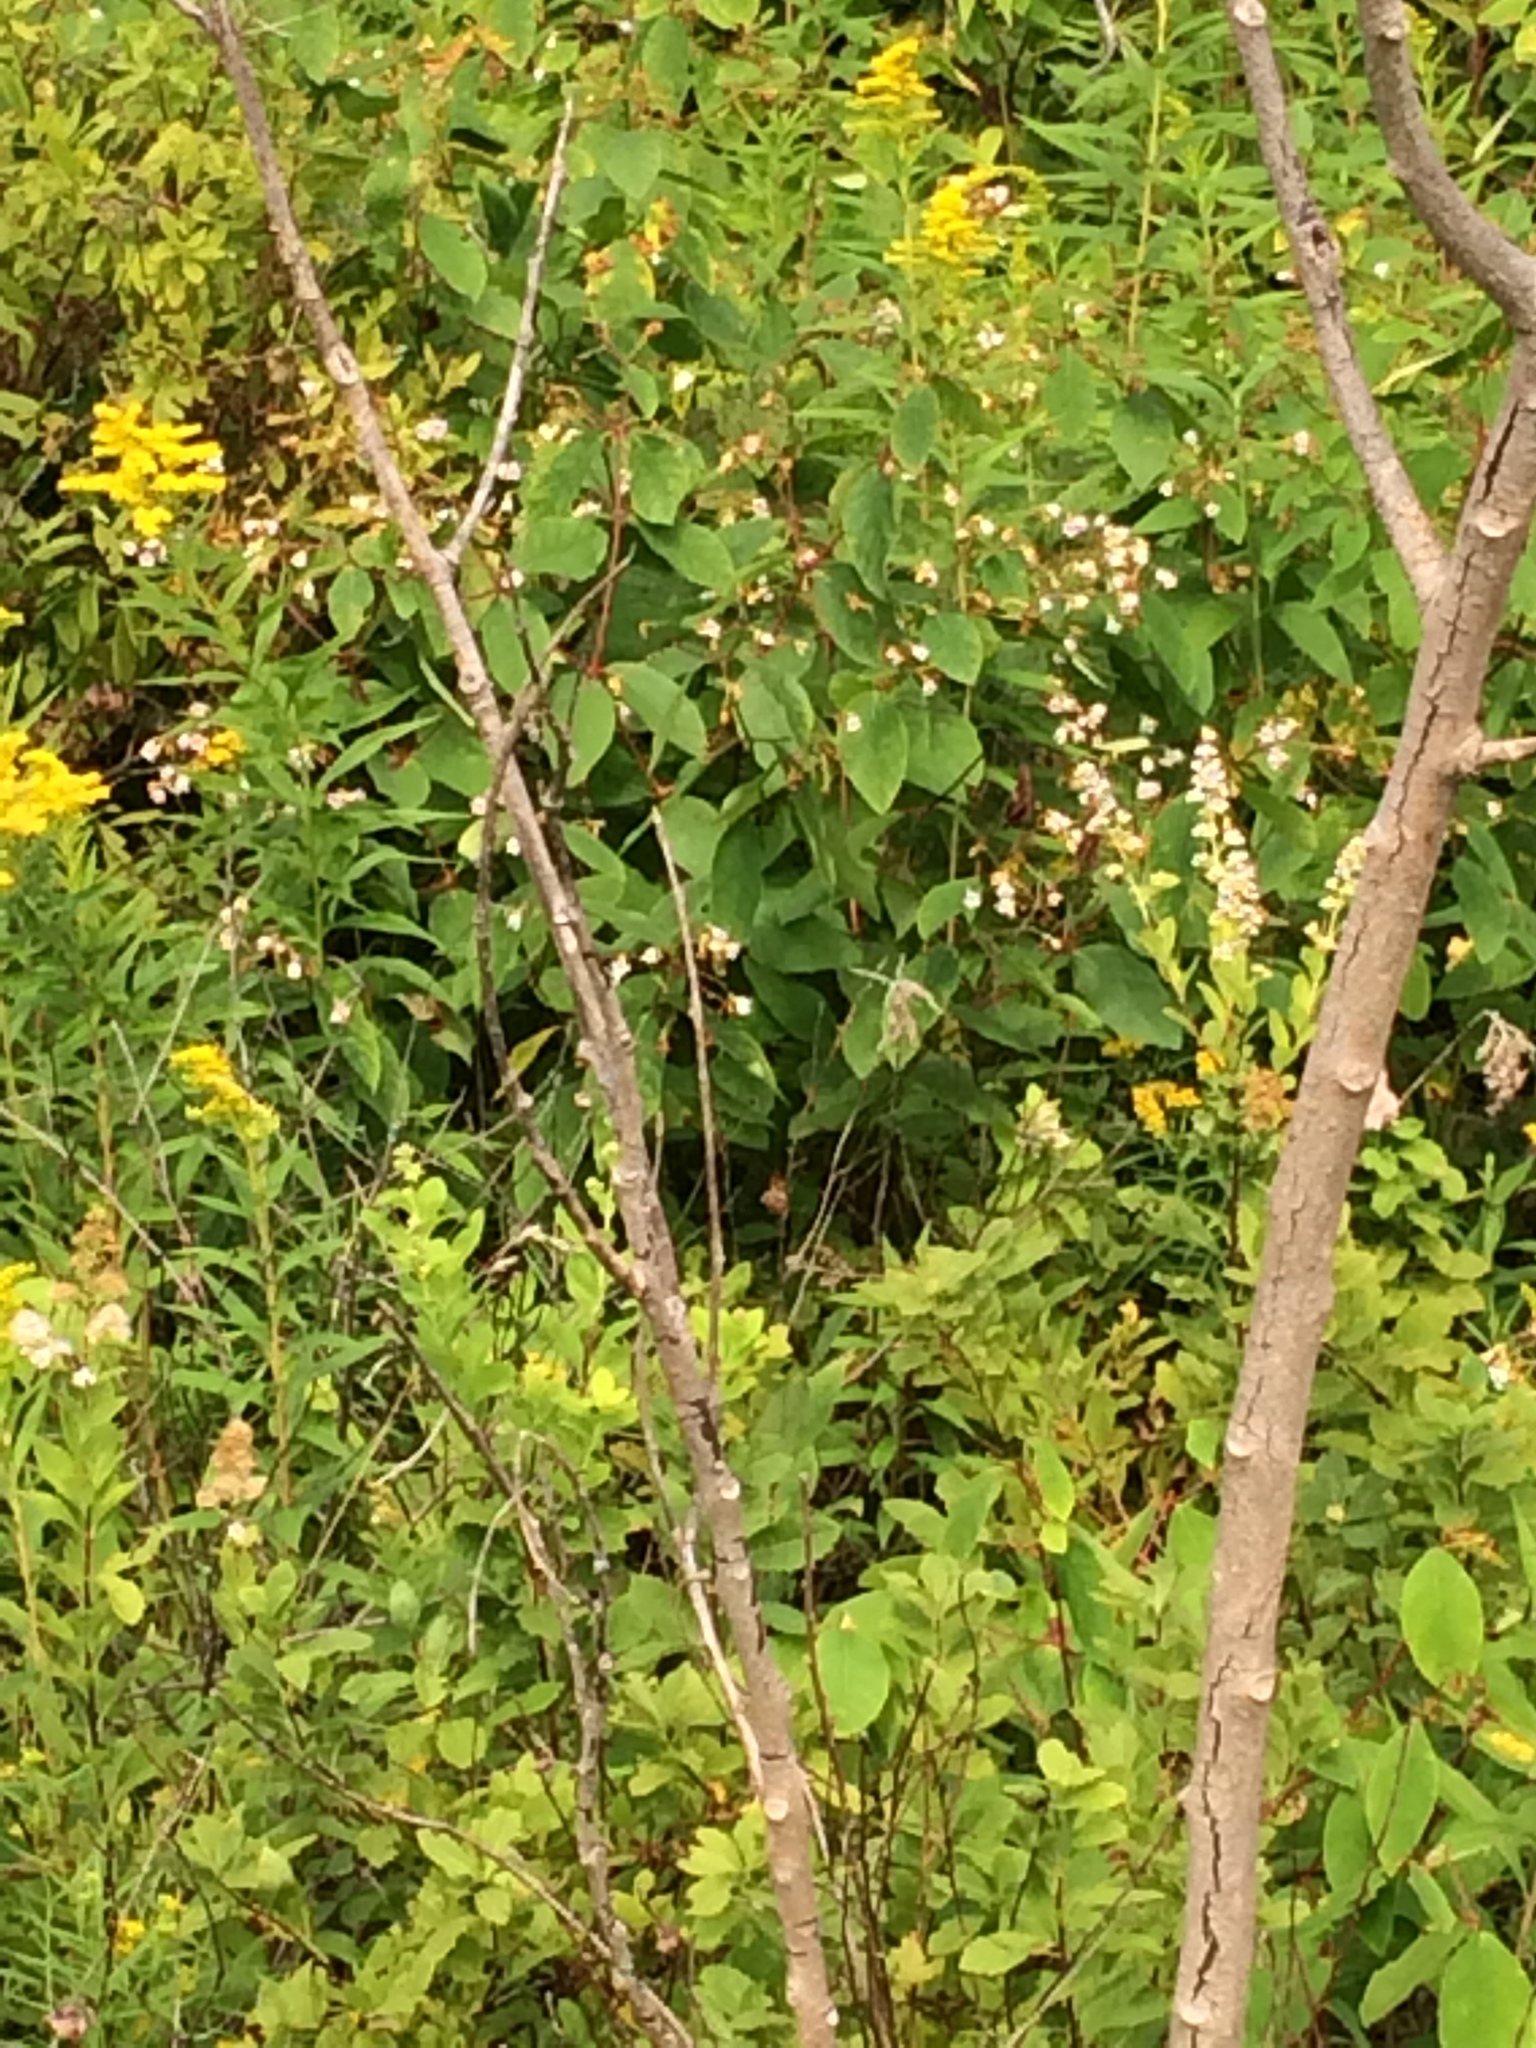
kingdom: Plantae
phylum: Tracheophyta
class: Magnoliopsida
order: Gentianales
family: Apocynaceae
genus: Apocynum
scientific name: Apocynum androsaemifolium
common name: Spreading dogbane
